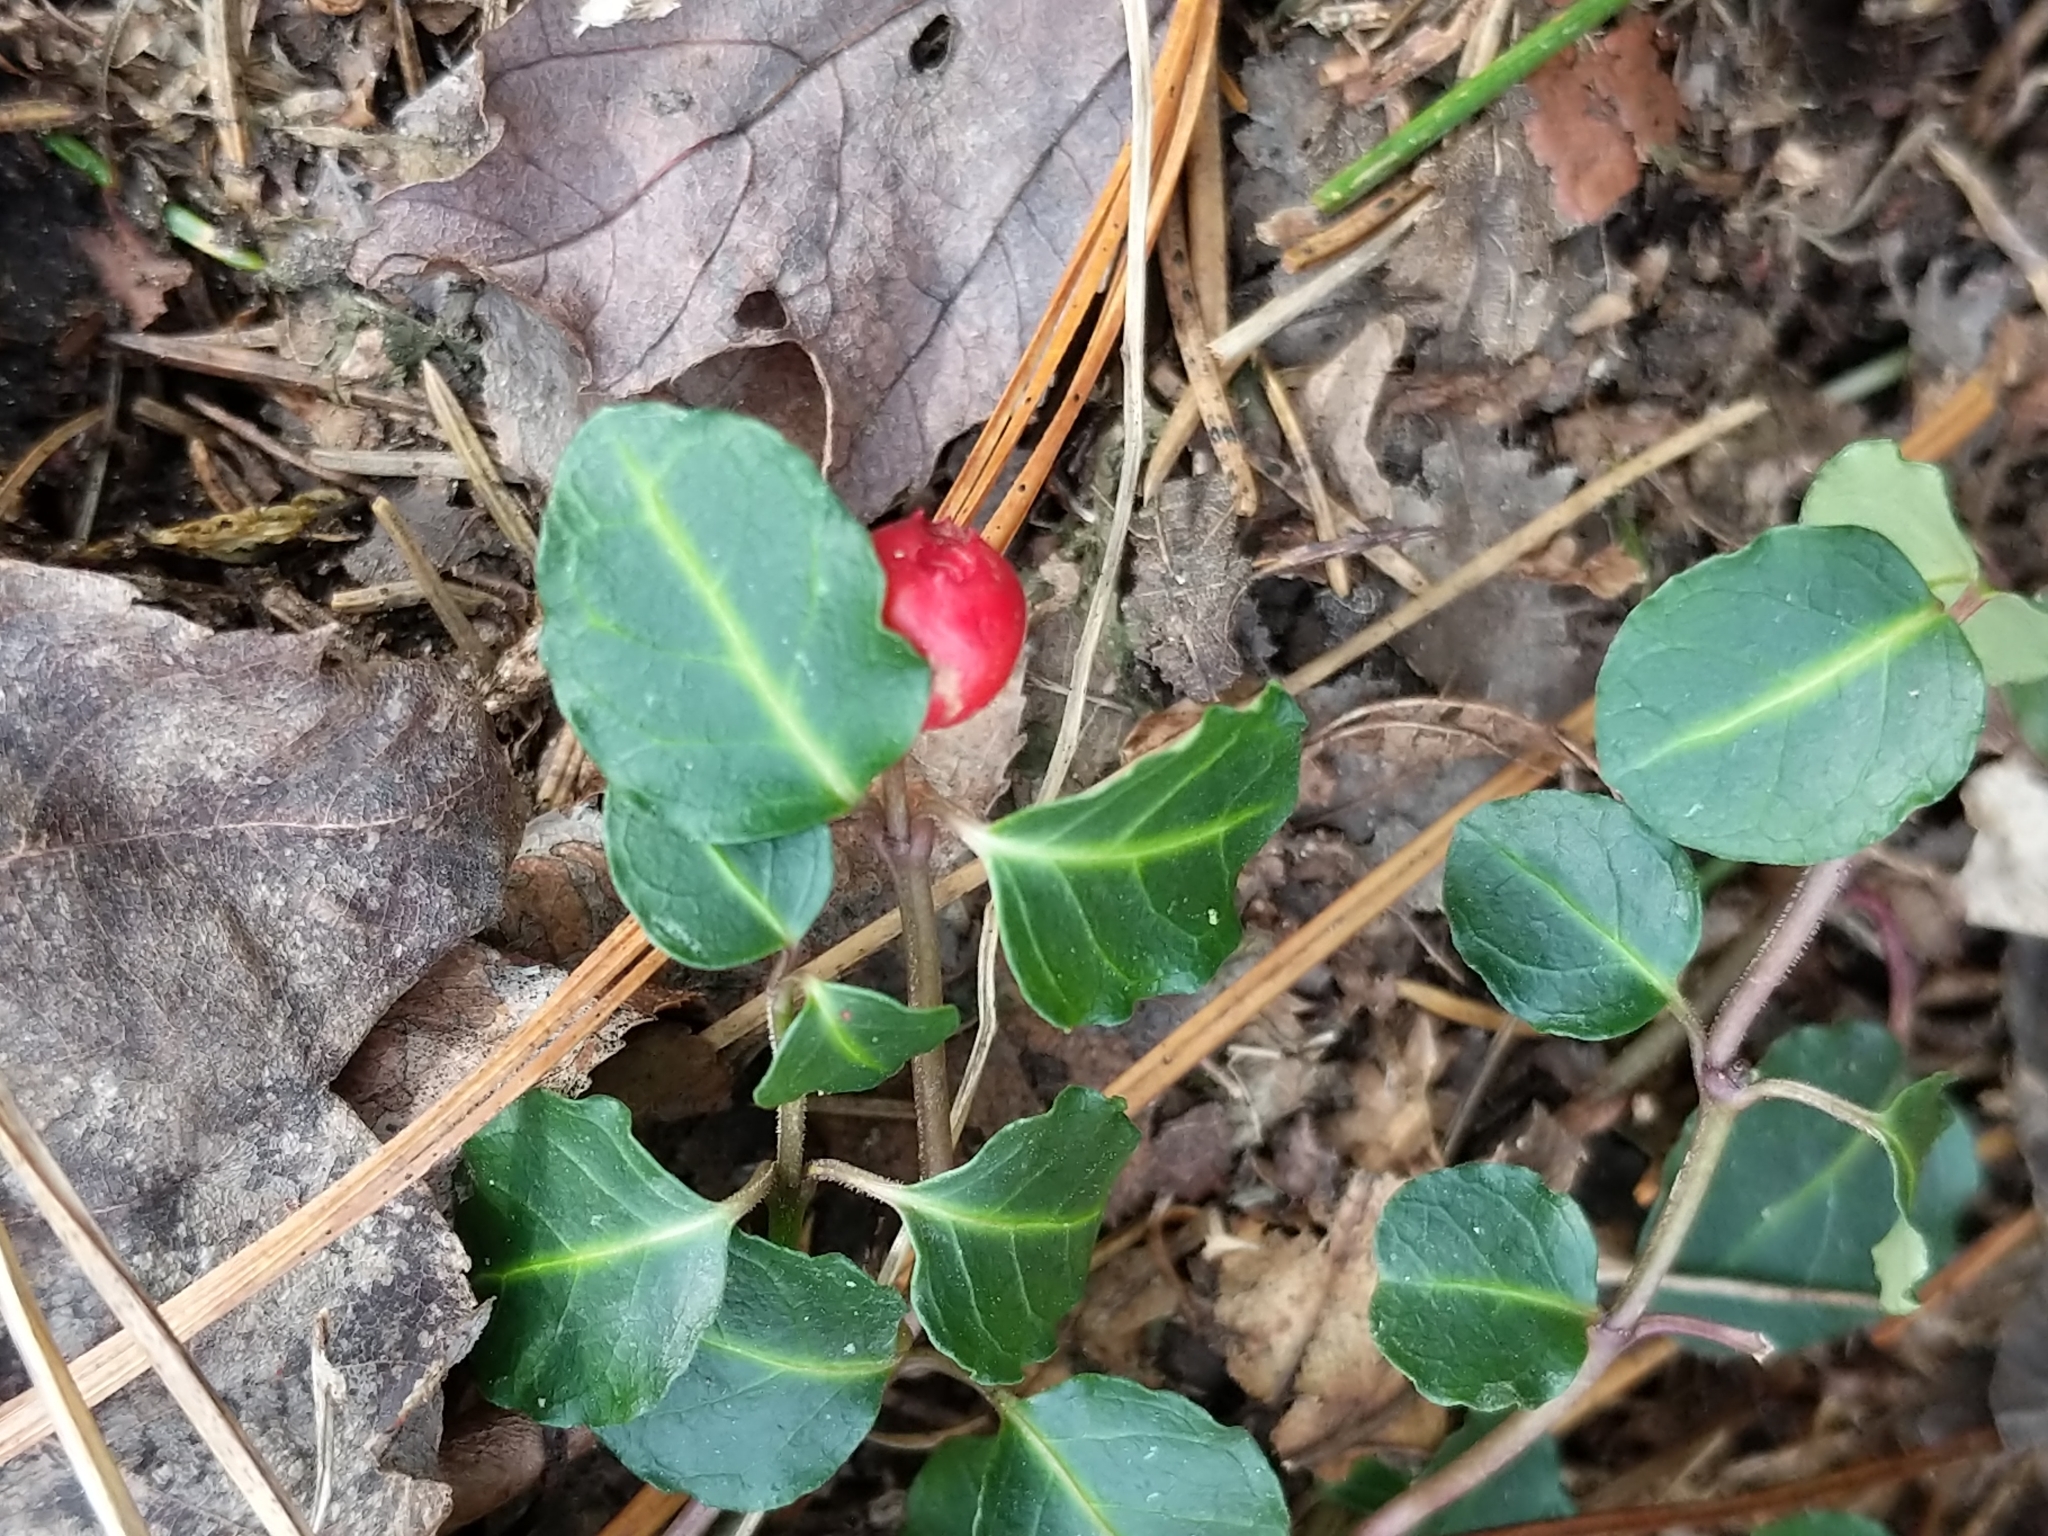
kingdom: Plantae
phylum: Tracheophyta
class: Magnoliopsida
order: Gentianales
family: Rubiaceae
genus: Mitchella
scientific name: Mitchella repens
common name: Partridge-berry
